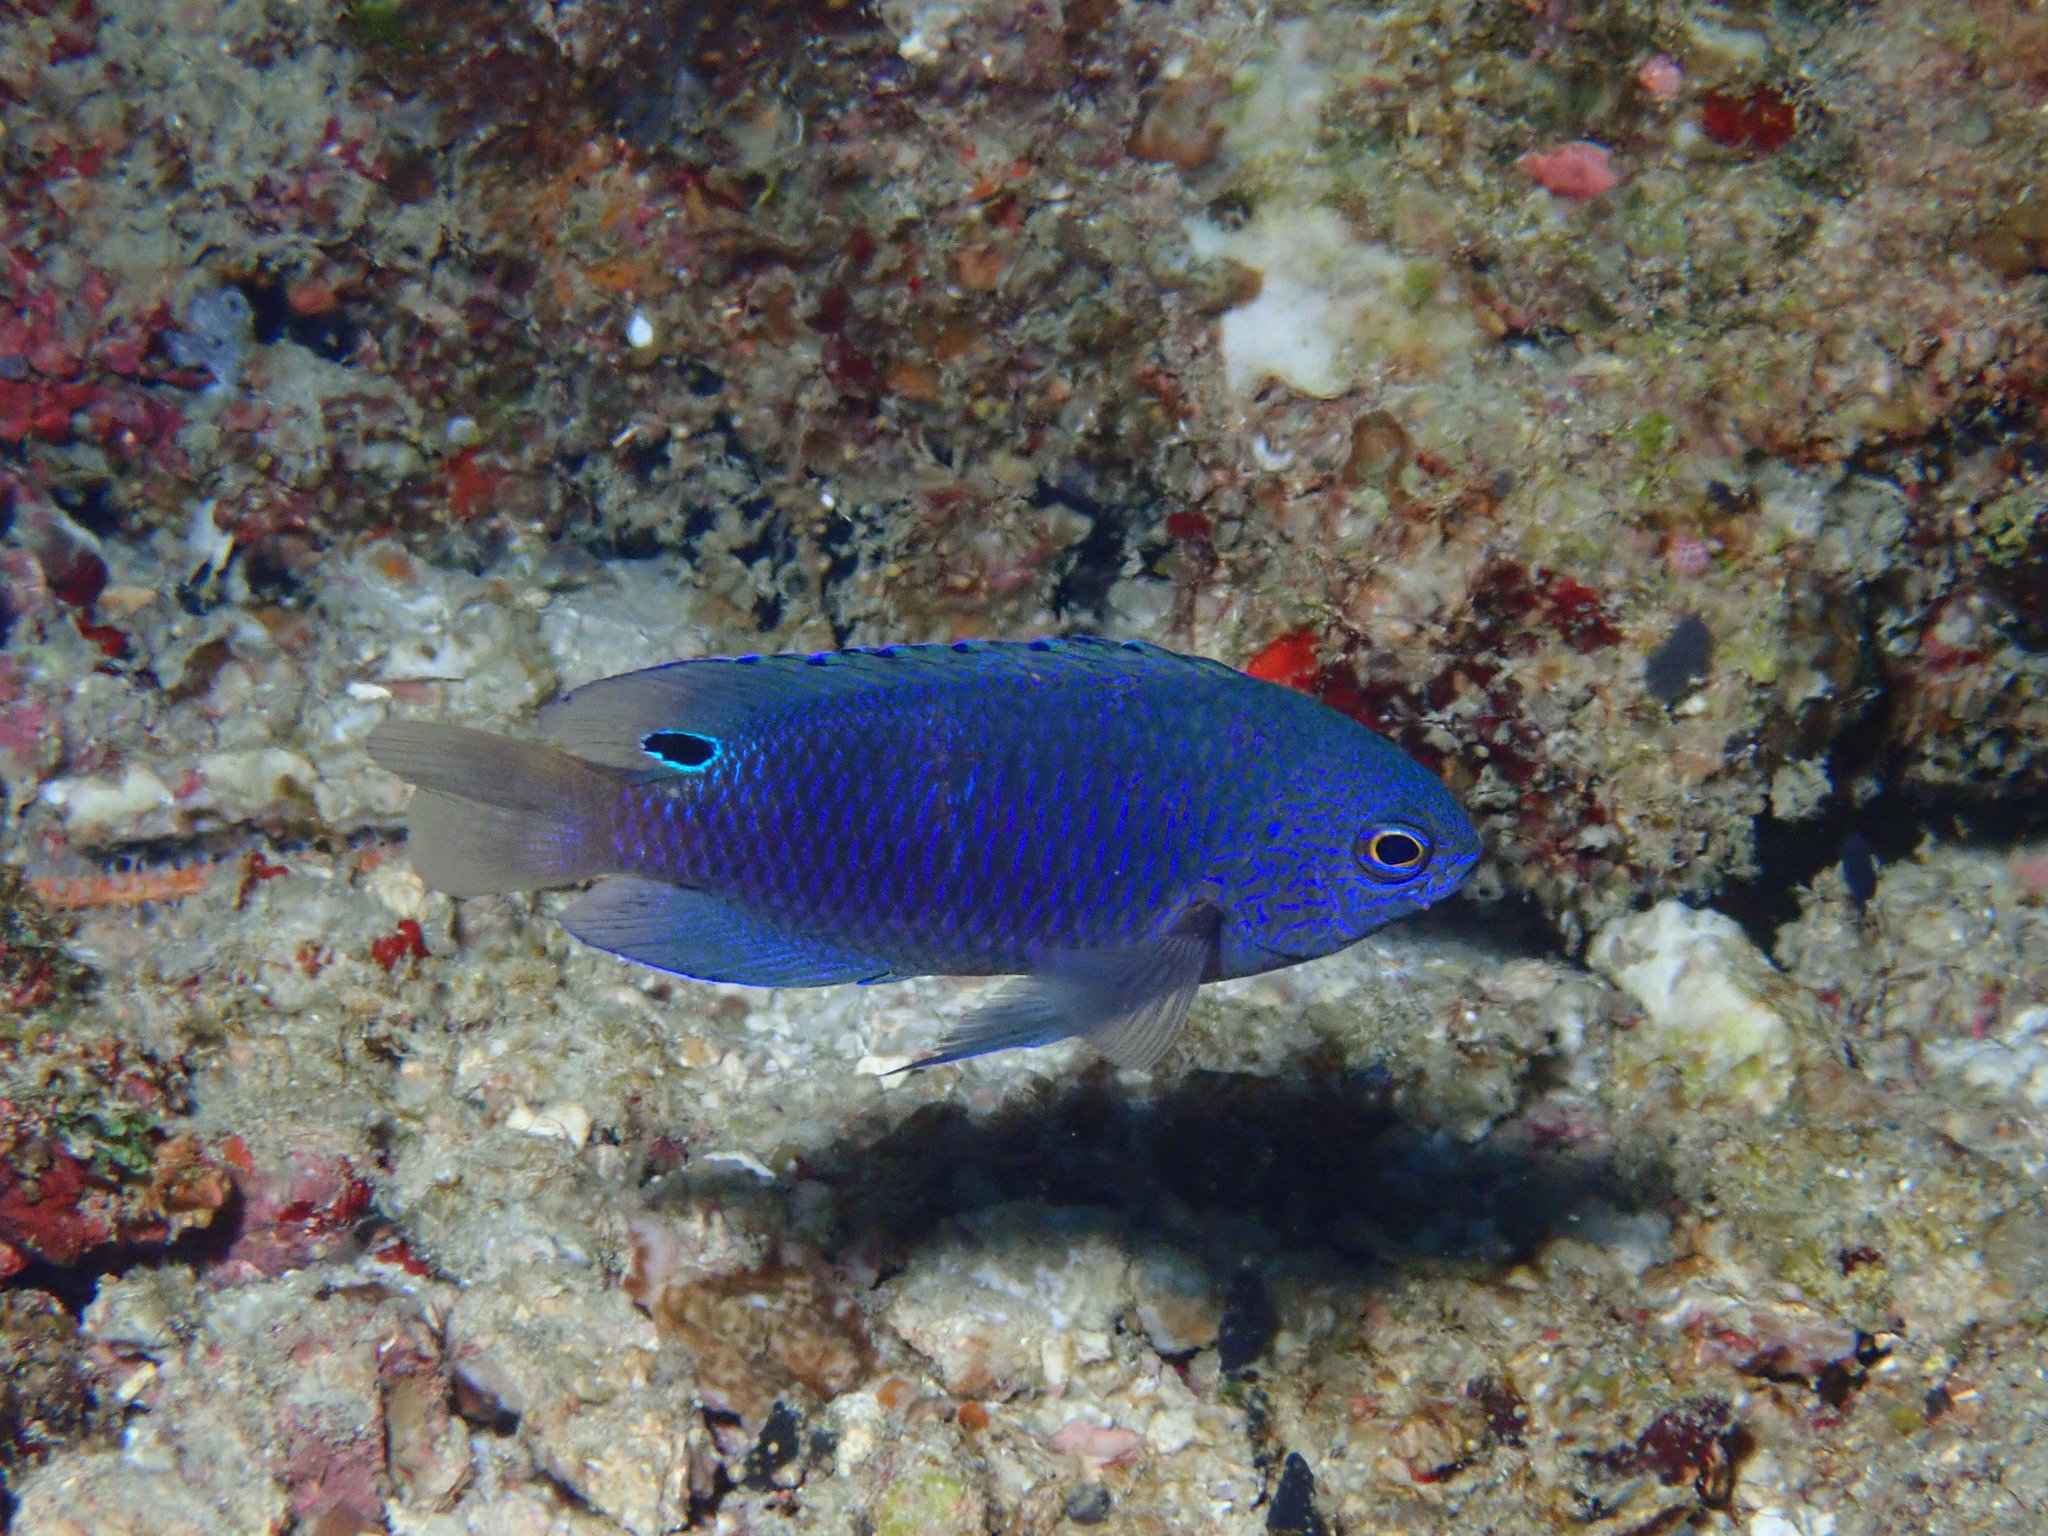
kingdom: Animalia
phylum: Chordata
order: Perciformes
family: Pomacentridae
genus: Pomacentrus
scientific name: Pomacentrus nagasakiensis
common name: Nagasaki damsel
